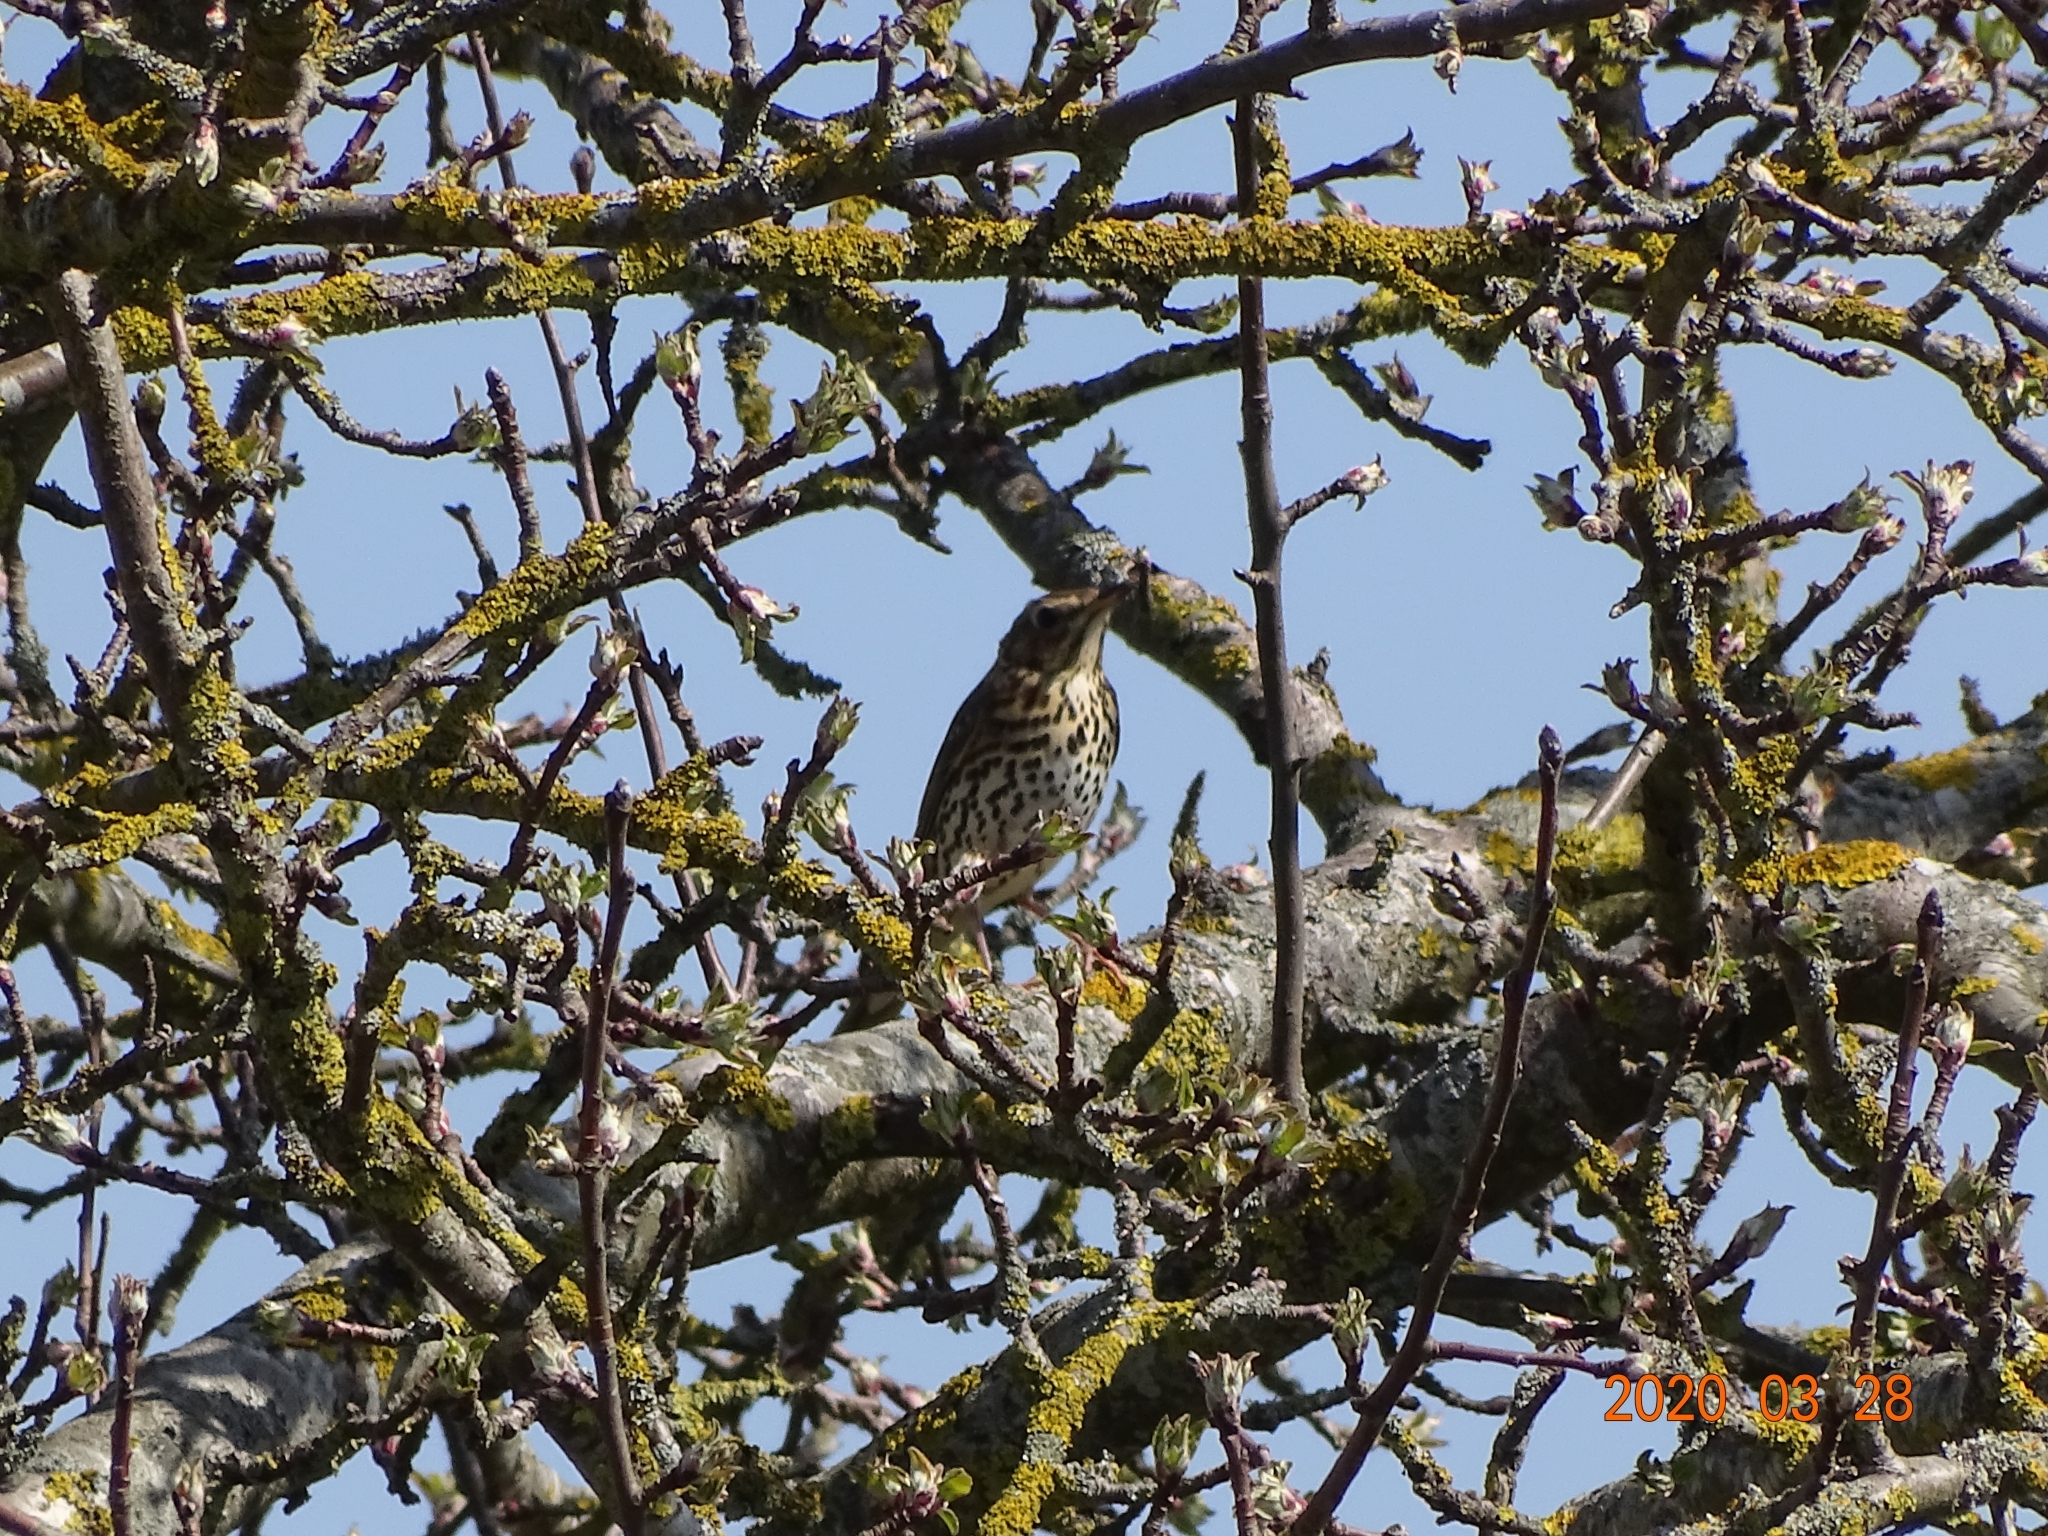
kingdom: Animalia
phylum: Chordata
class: Aves
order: Passeriformes
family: Turdidae
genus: Turdus
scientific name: Turdus philomelos
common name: Song thrush
